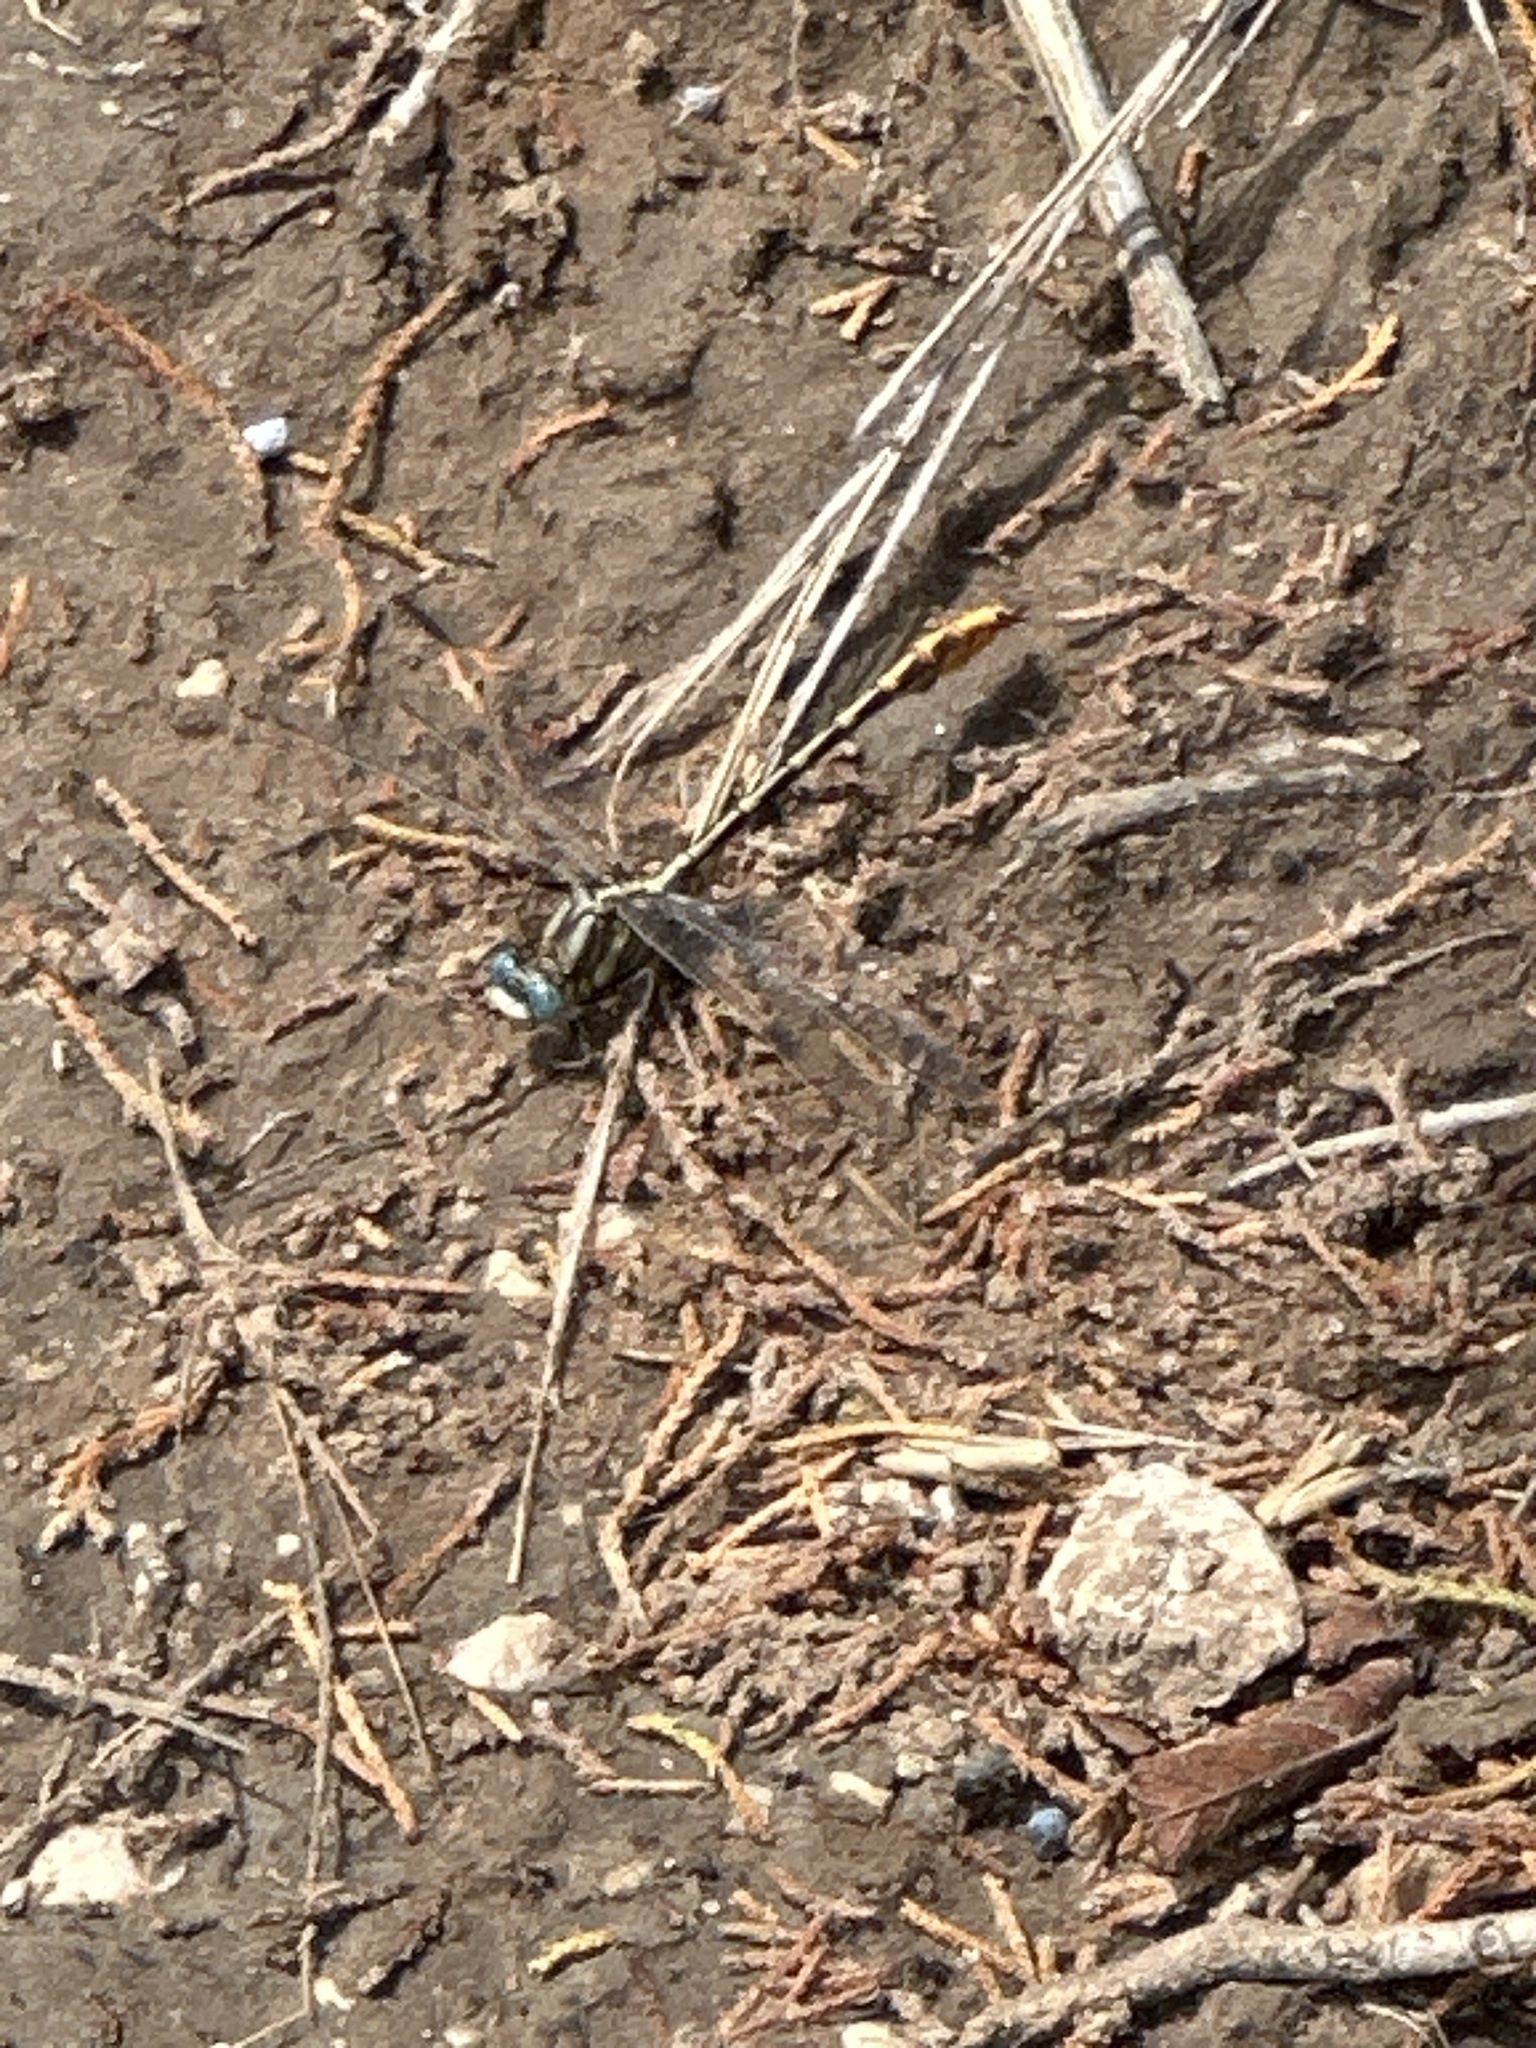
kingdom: Animalia
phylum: Arthropoda
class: Insecta
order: Odonata
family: Gomphidae
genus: Phanogomphus
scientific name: Phanogomphus militaris
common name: Sulphur-tipped clubtail
